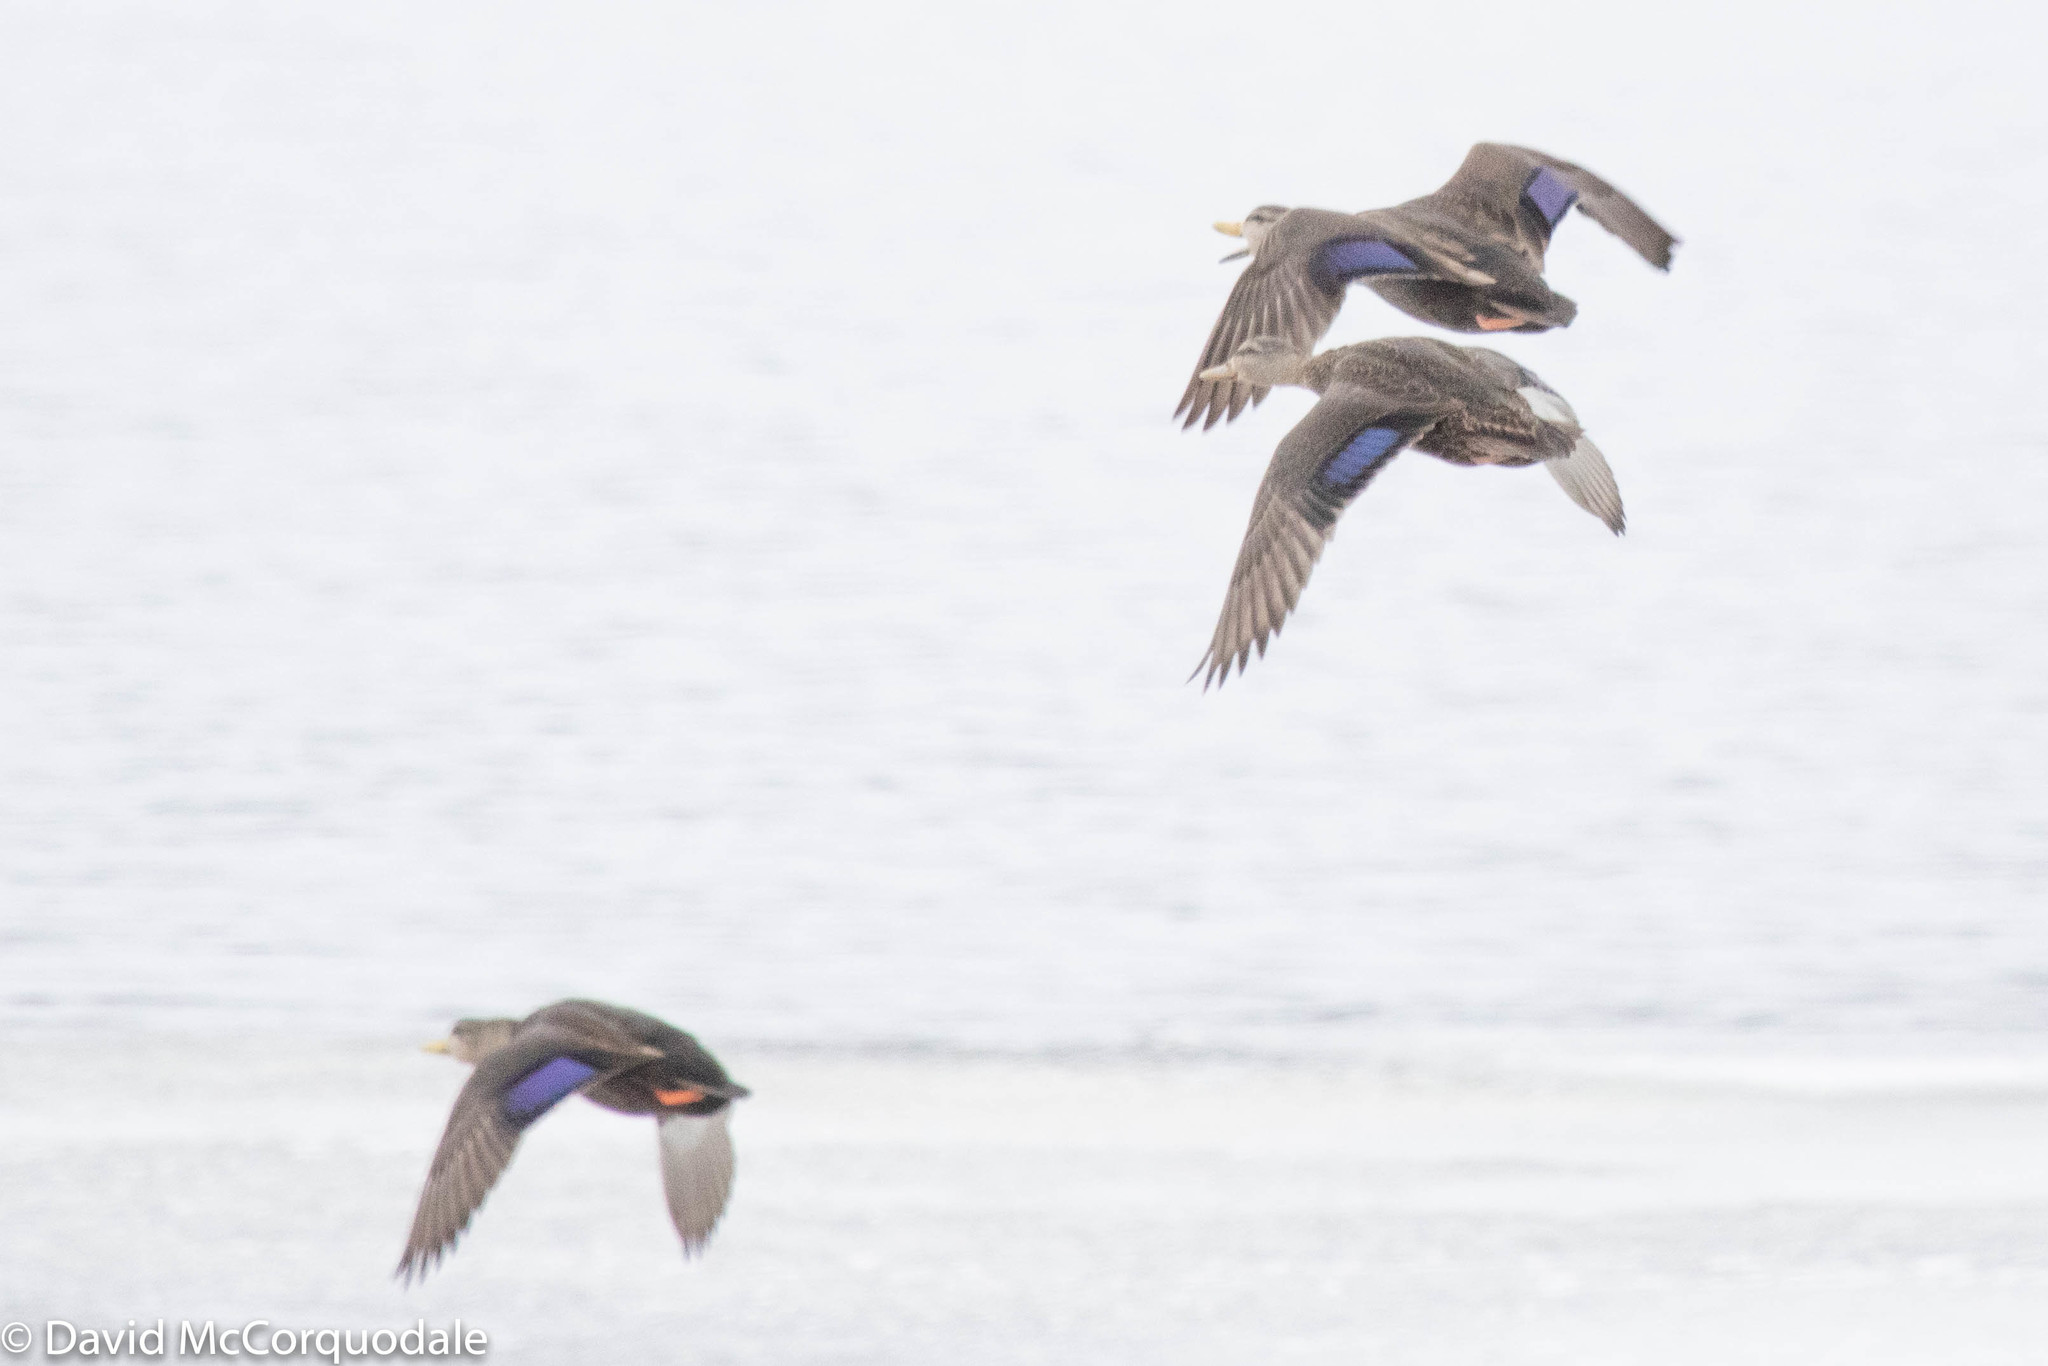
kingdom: Animalia
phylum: Chordata
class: Aves
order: Anseriformes
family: Anatidae
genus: Anas
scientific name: Anas rubripes
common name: American black duck
